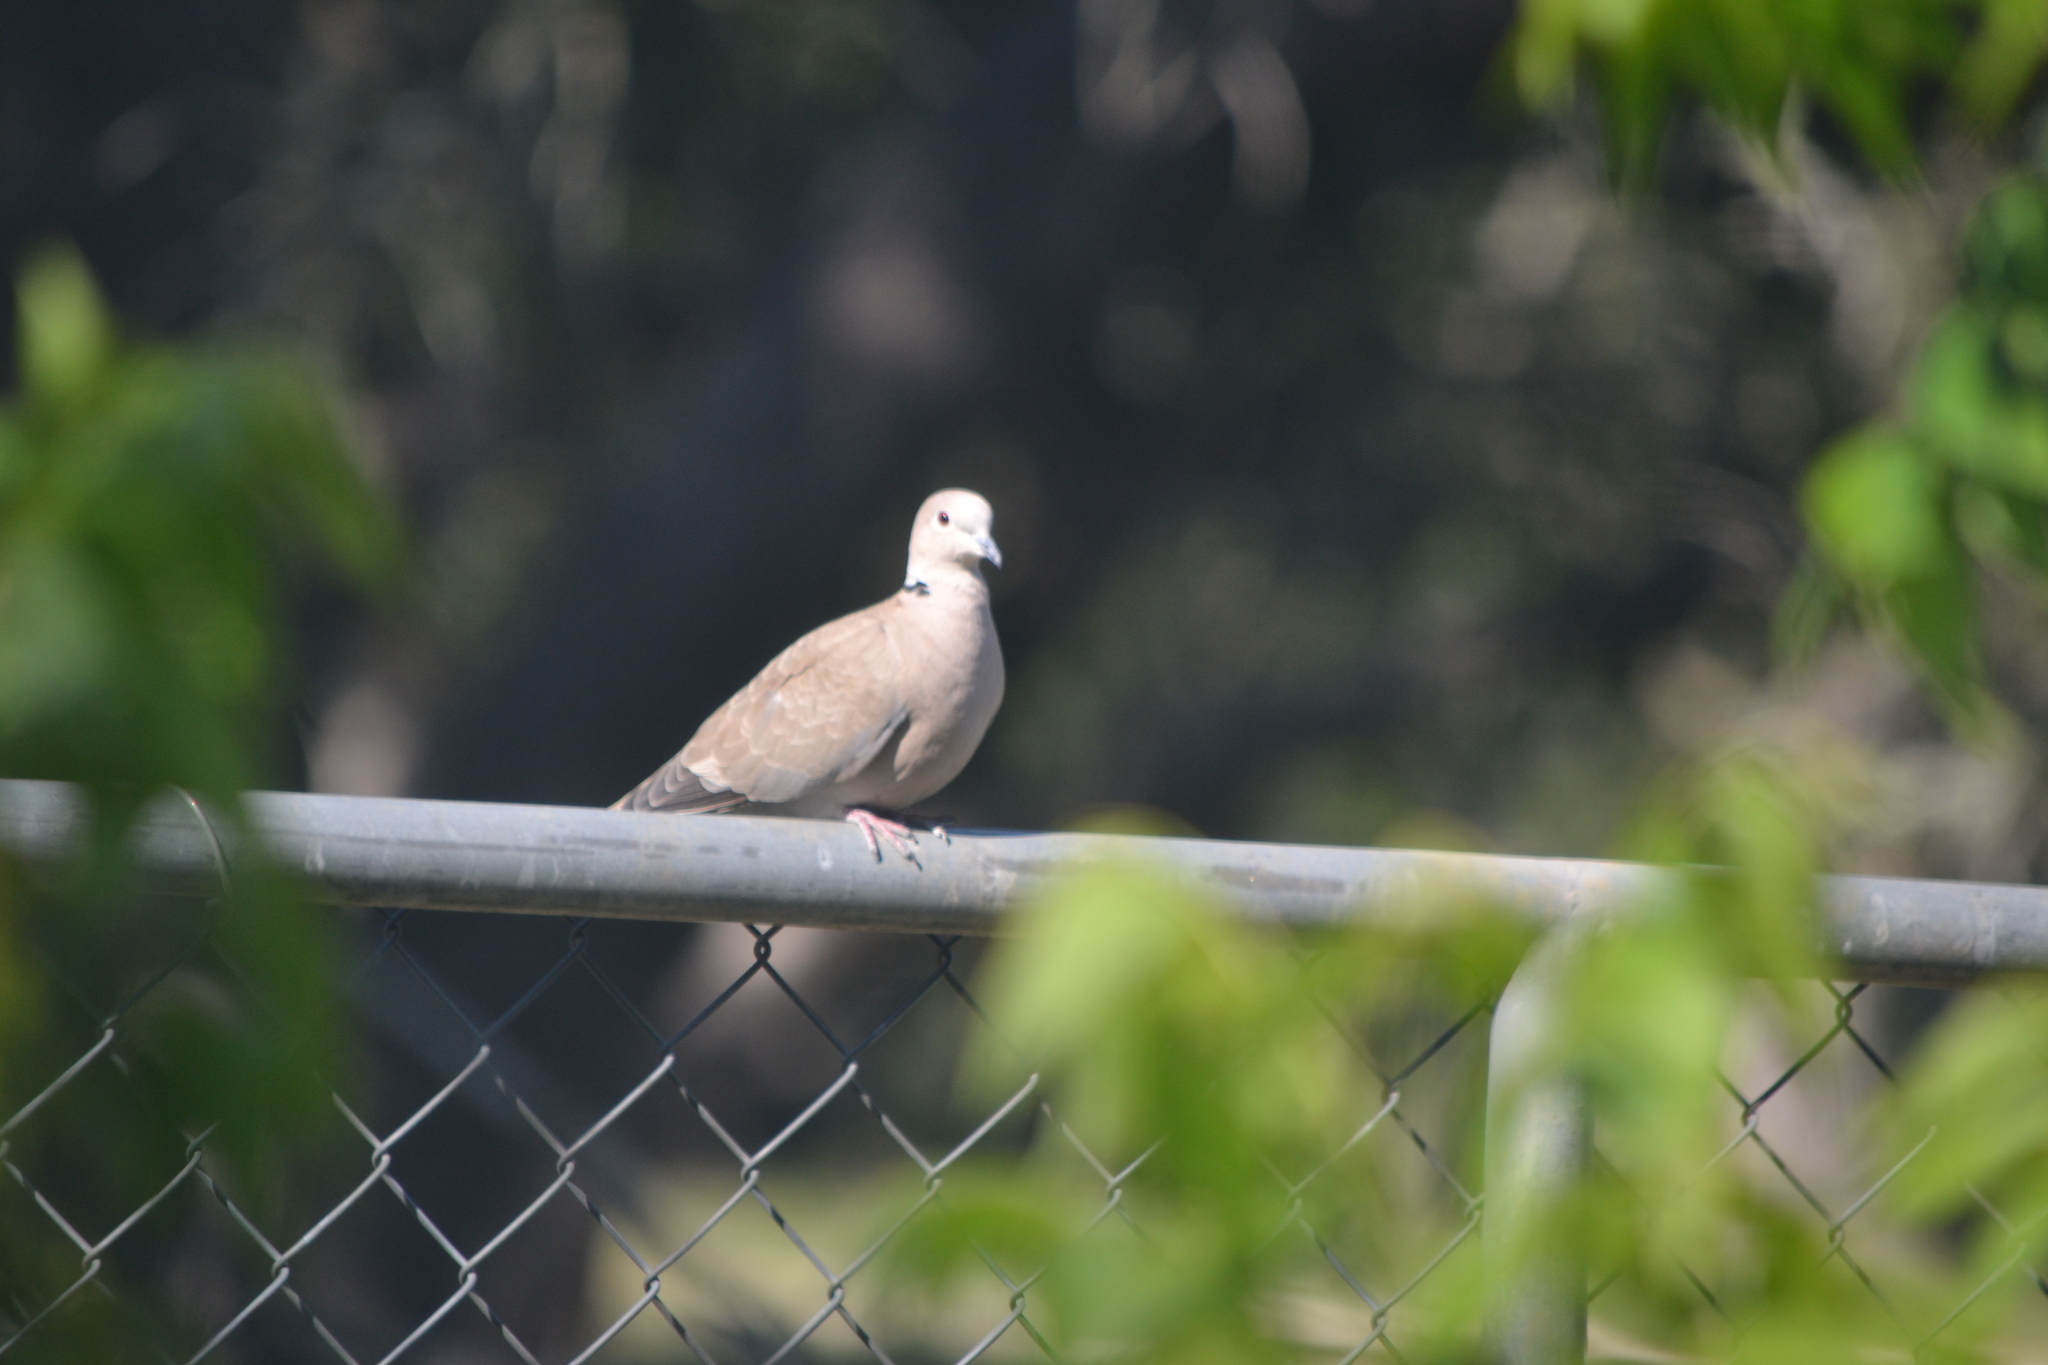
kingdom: Animalia
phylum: Chordata
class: Aves
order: Columbiformes
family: Columbidae
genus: Streptopelia
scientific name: Streptopelia decaocto
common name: Eurasian collared dove
